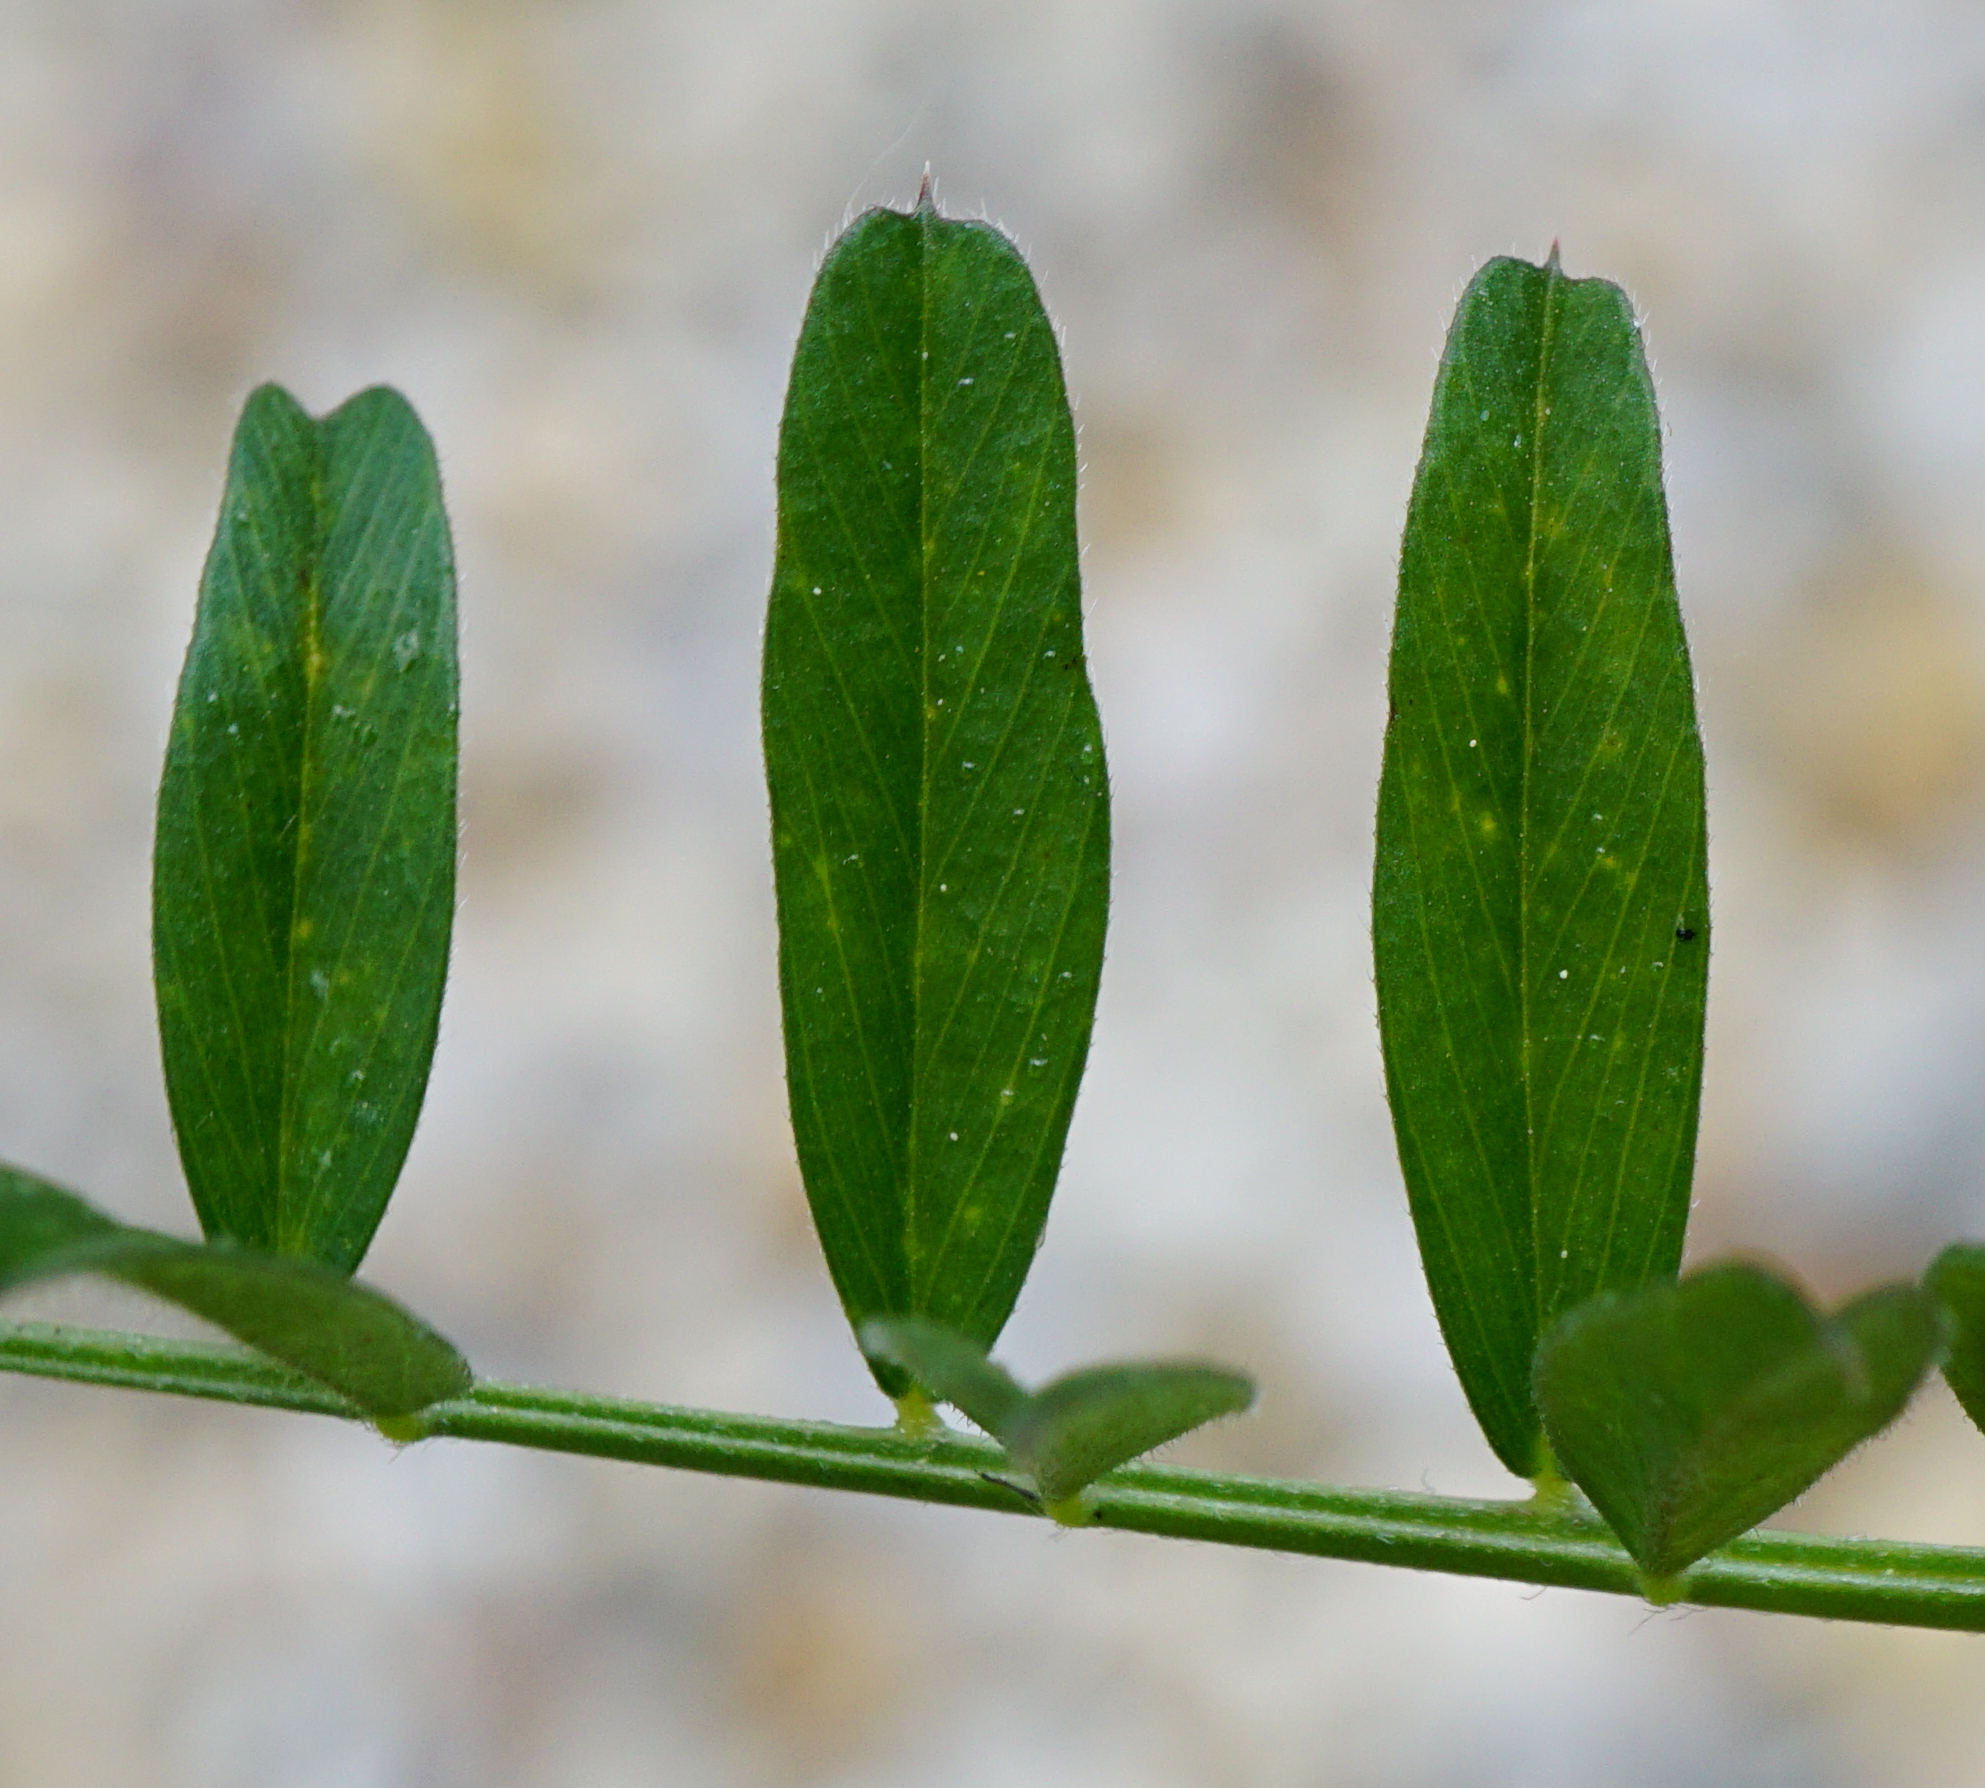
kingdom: Plantae
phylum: Tracheophyta
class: Magnoliopsida
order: Fabales
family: Fabaceae
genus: Vicia
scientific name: Vicia sativa
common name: Garden vetch
